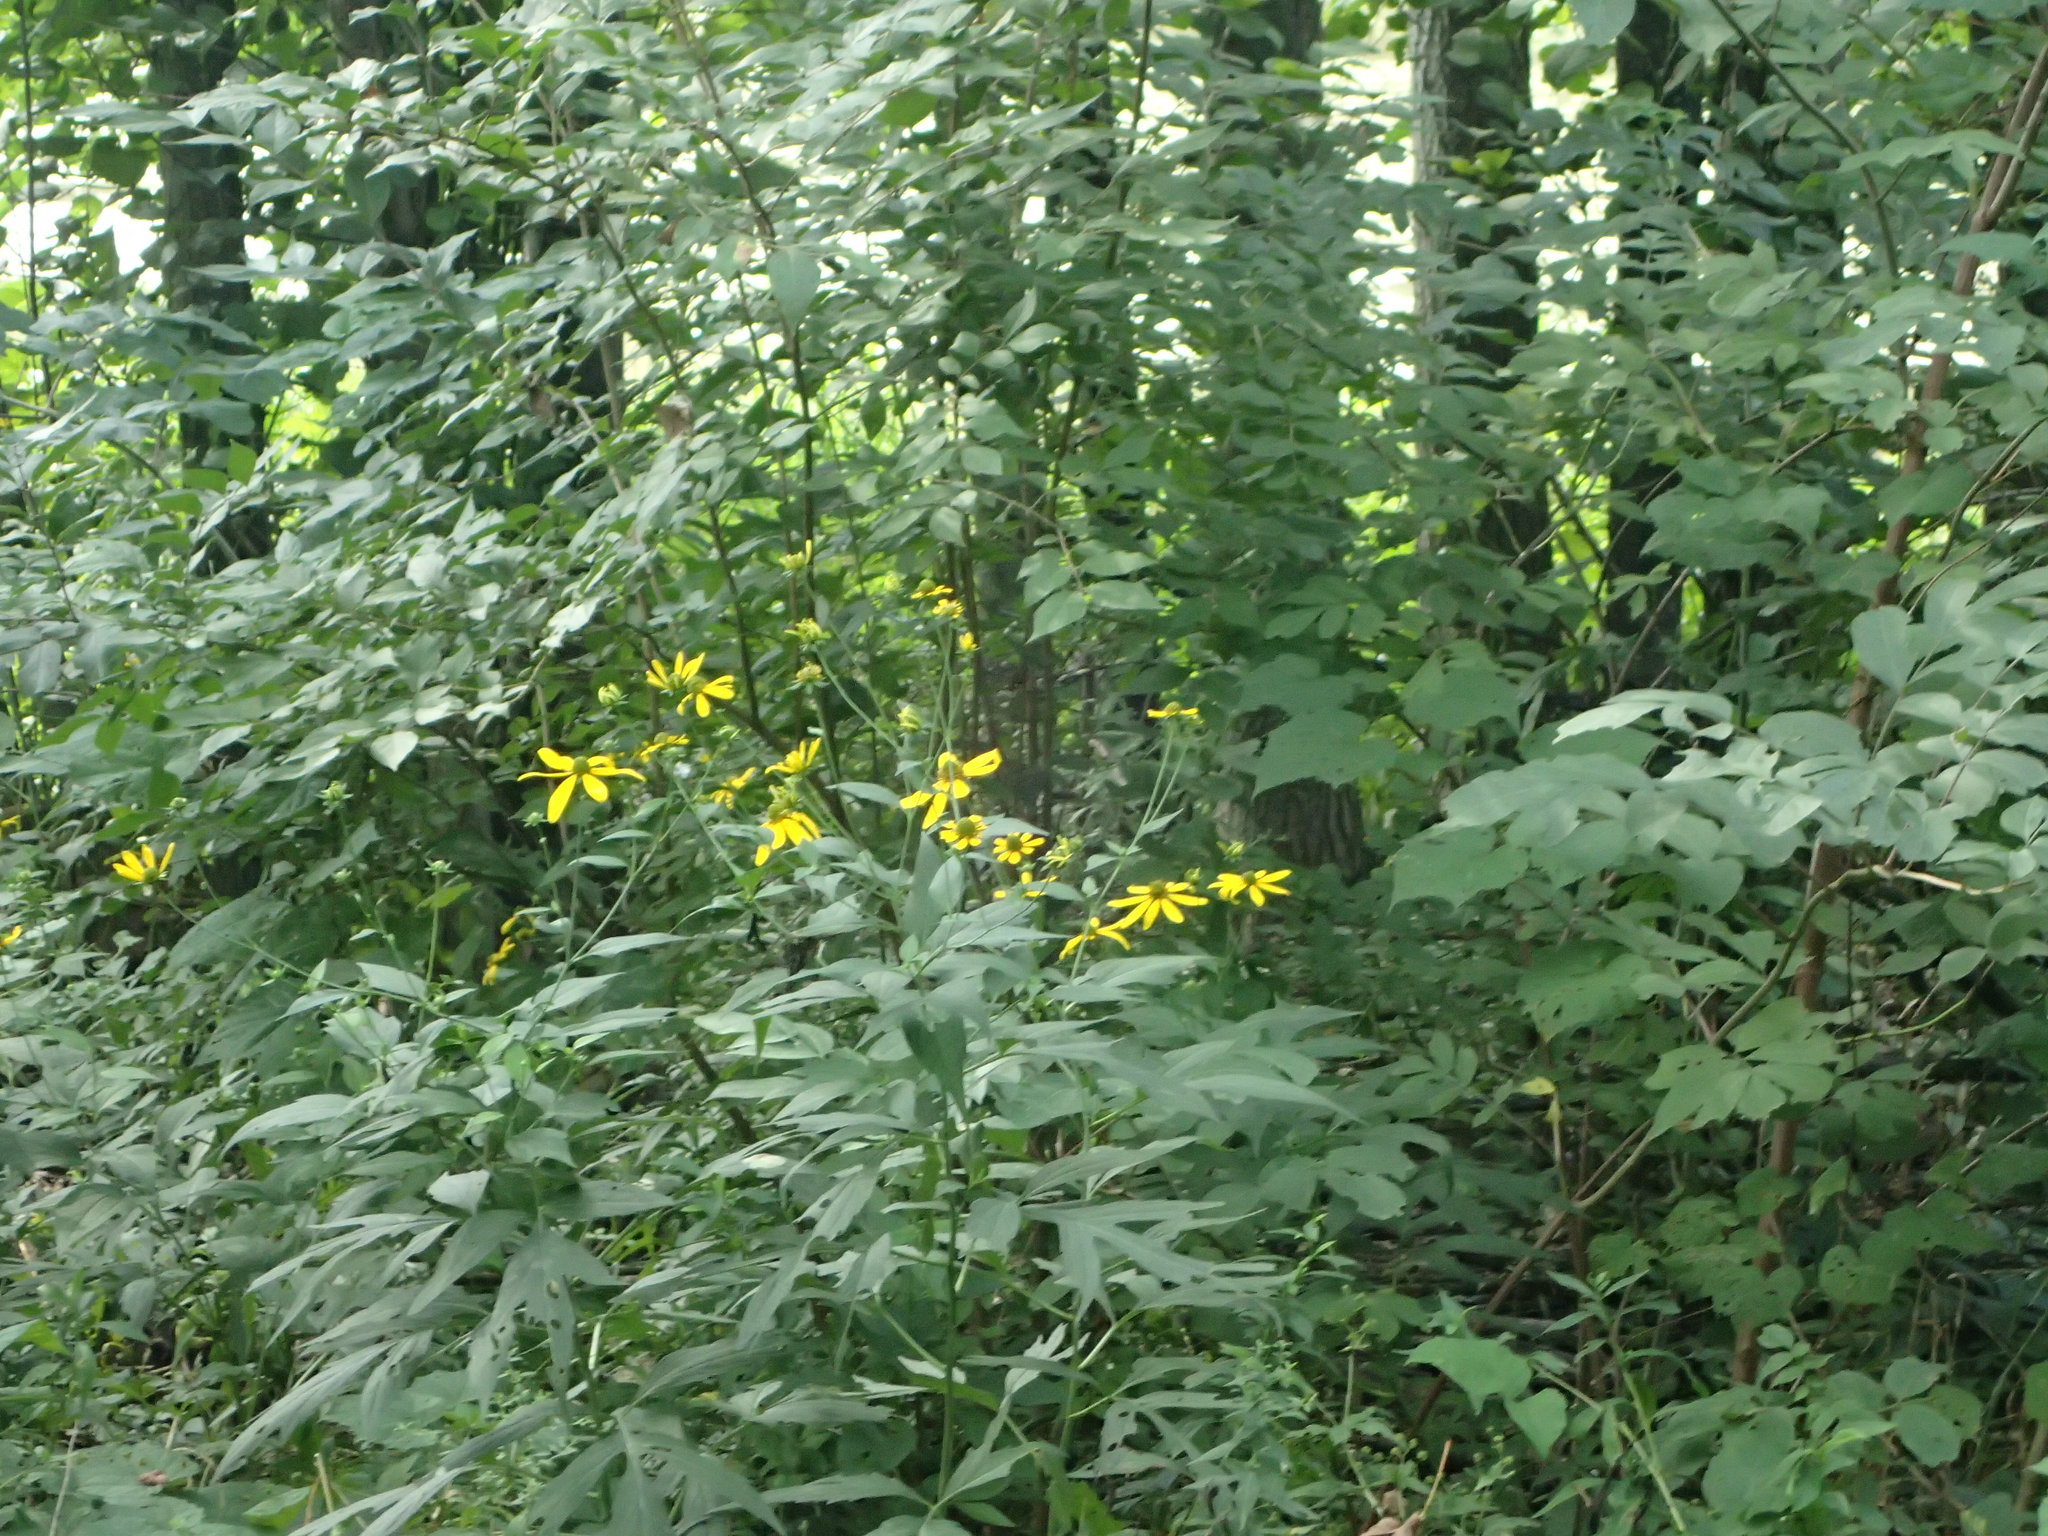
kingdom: Plantae
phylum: Tracheophyta
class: Magnoliopsida
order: Asterales
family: Asteraceae
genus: Rudbeckia
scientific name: Rudbeckia laciniata
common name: Coneflower
